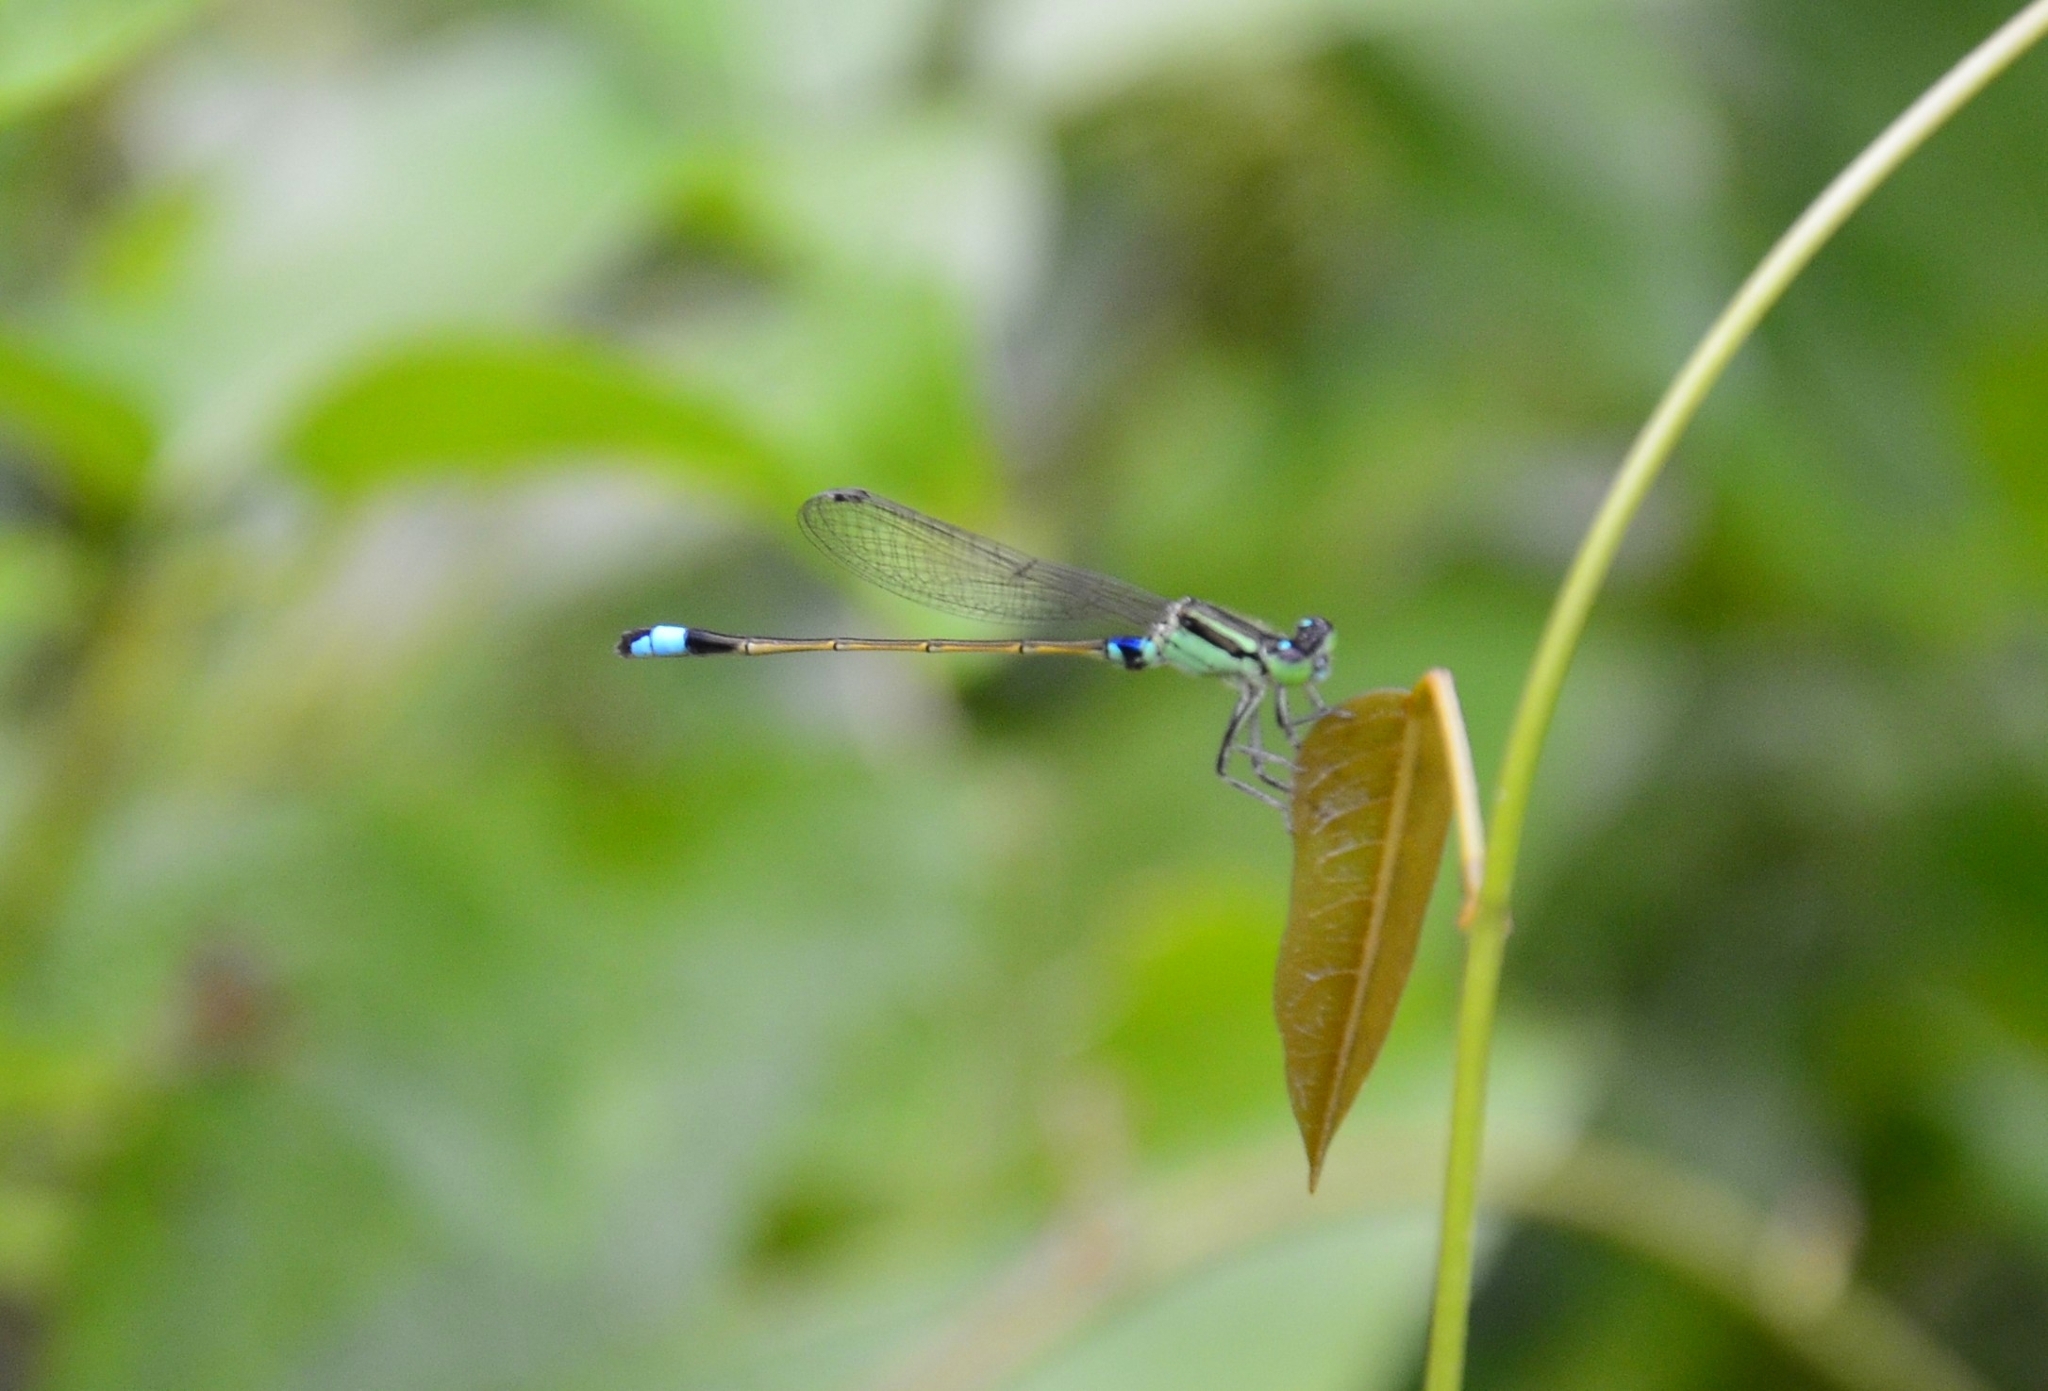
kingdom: Animalia
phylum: Arthropoda
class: Insecta
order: Odonata
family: Coenagrionidae
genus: Ischnura
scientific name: Ischnura senegalensis
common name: Tropical bluetail
